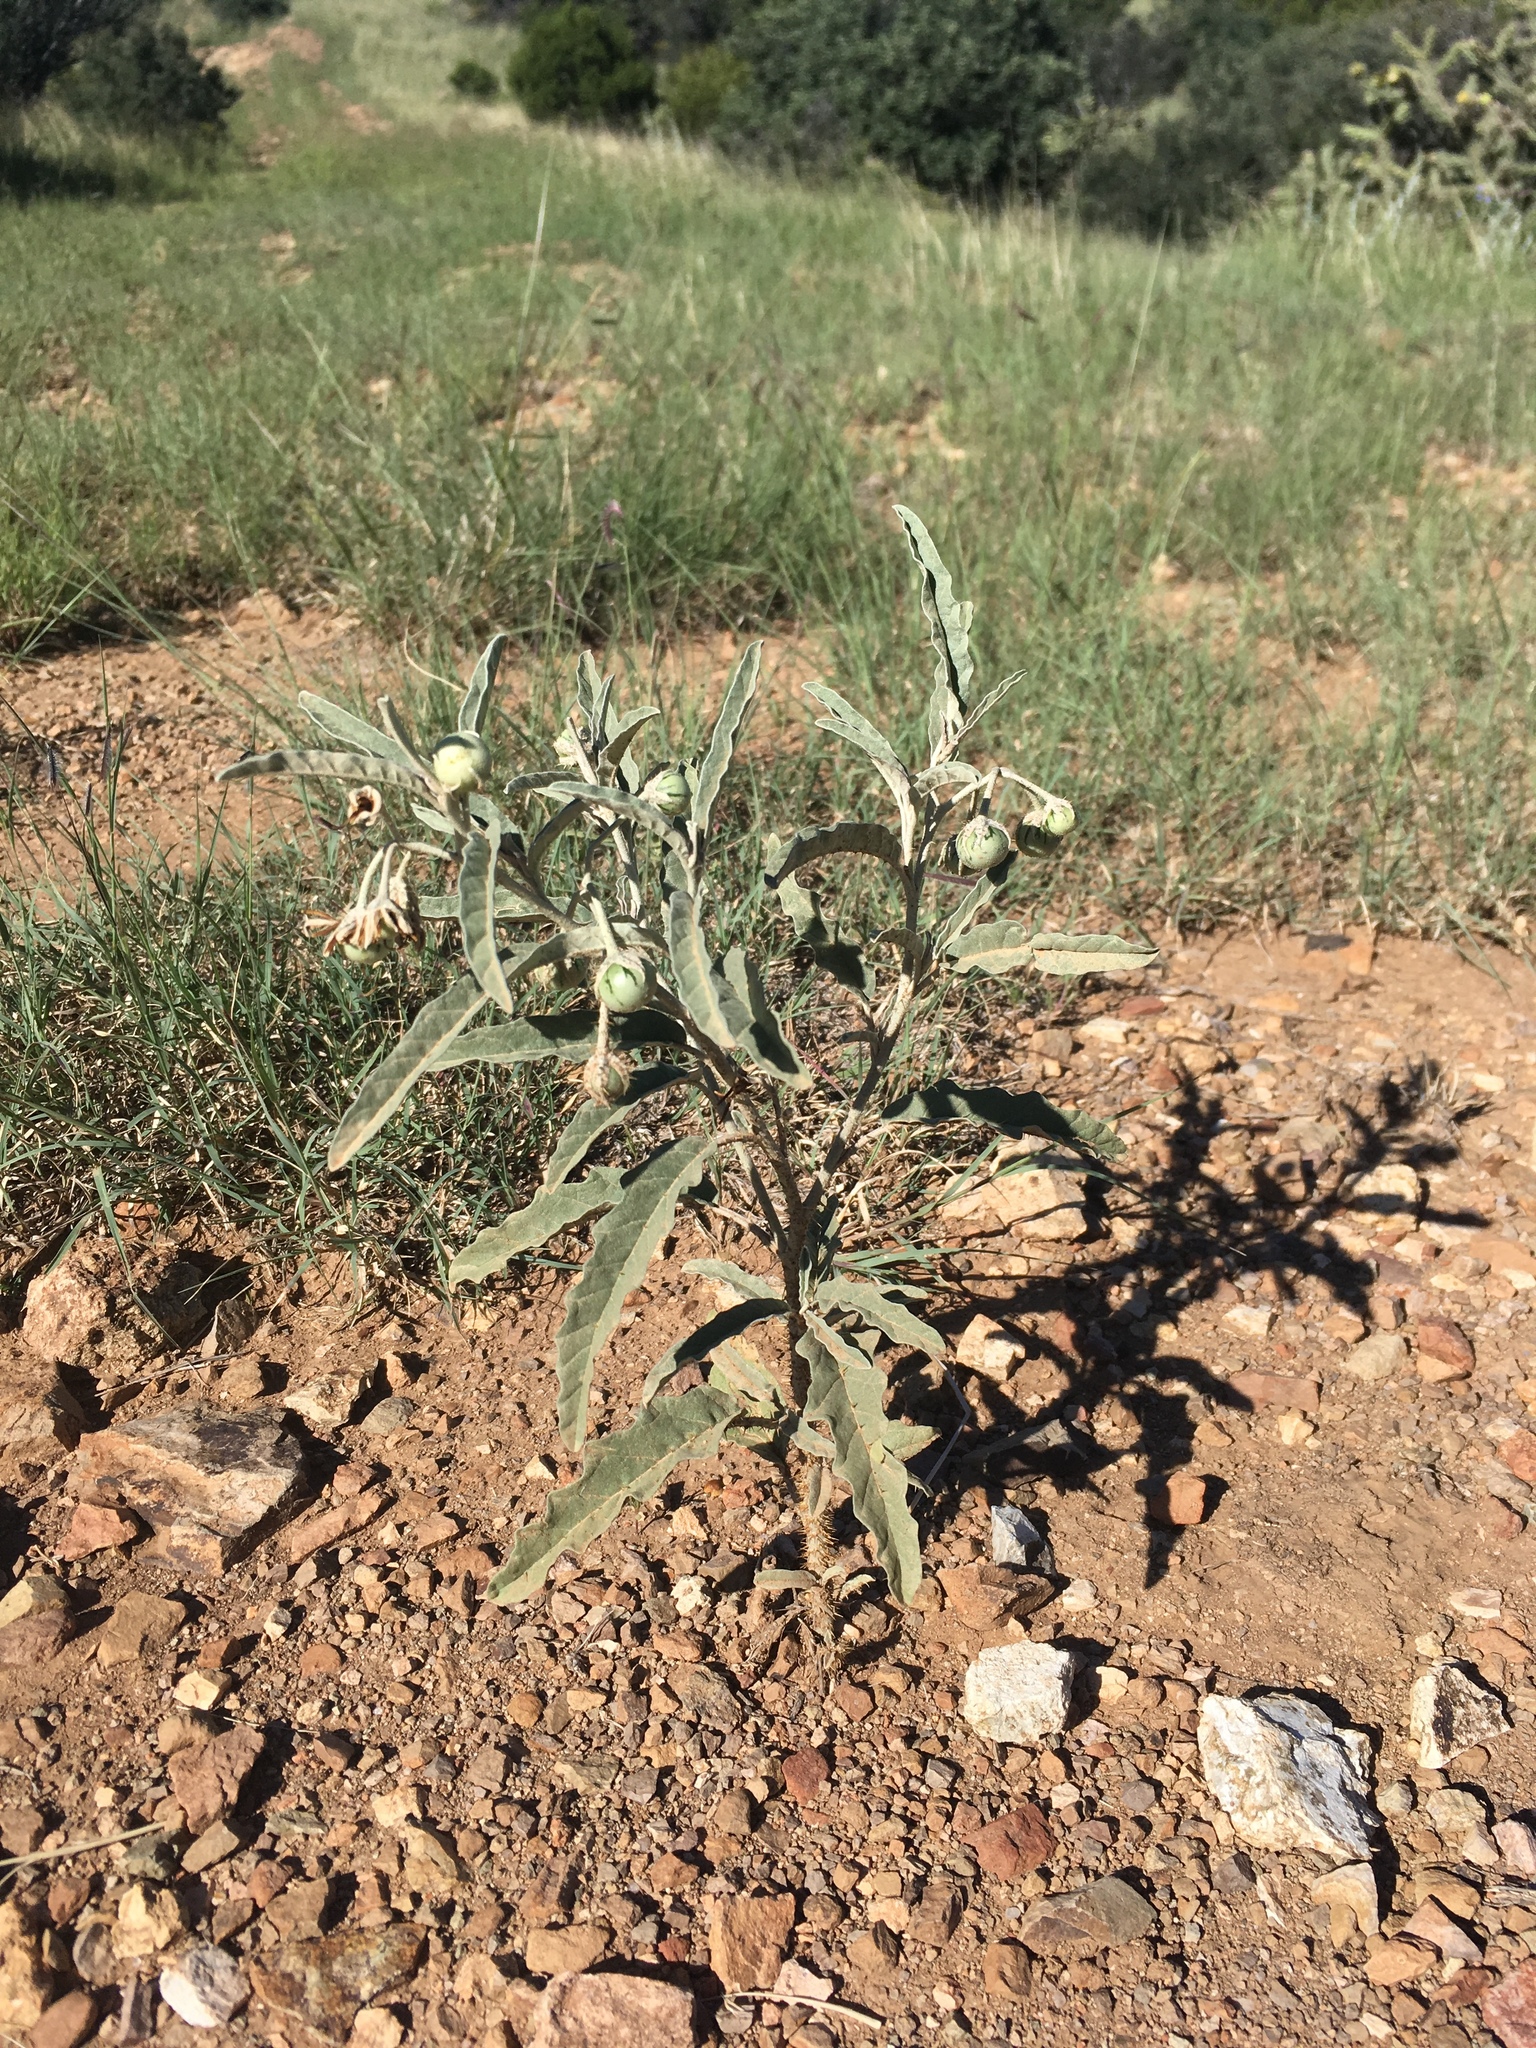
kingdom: Plantae
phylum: Tracheophyta
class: Magnoliopsida
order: Solanales
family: Solanaceae
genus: Solanum
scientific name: Solanum elaeagnifolium
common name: Silverleaf nightshade
